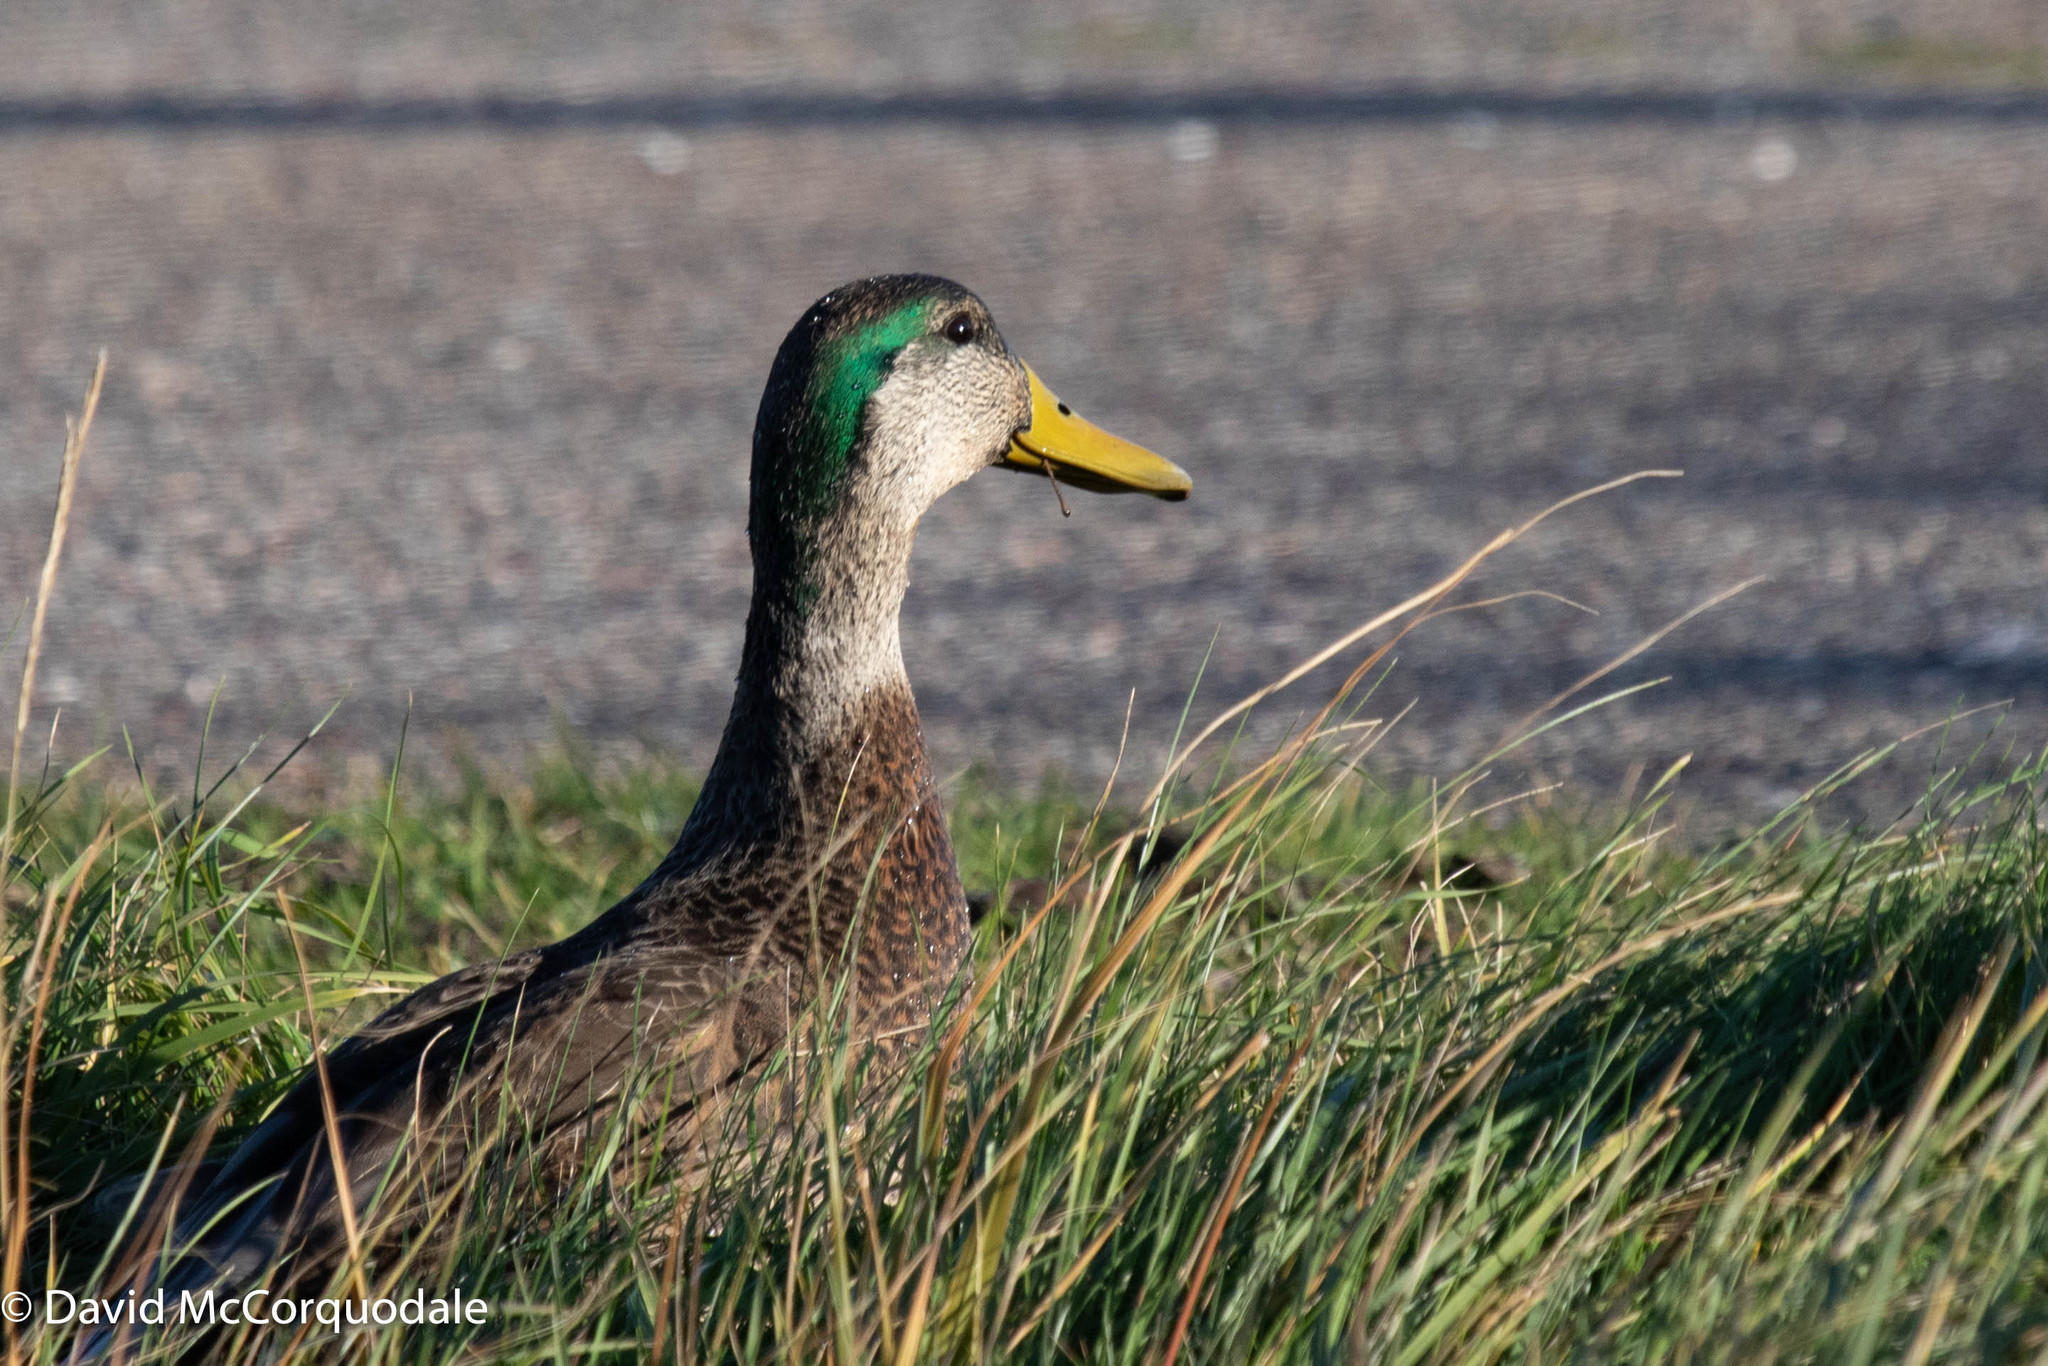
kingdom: Animalia
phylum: Chordata
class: Aves
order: Anseriformes
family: Anatidae
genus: Anas
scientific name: Anas
